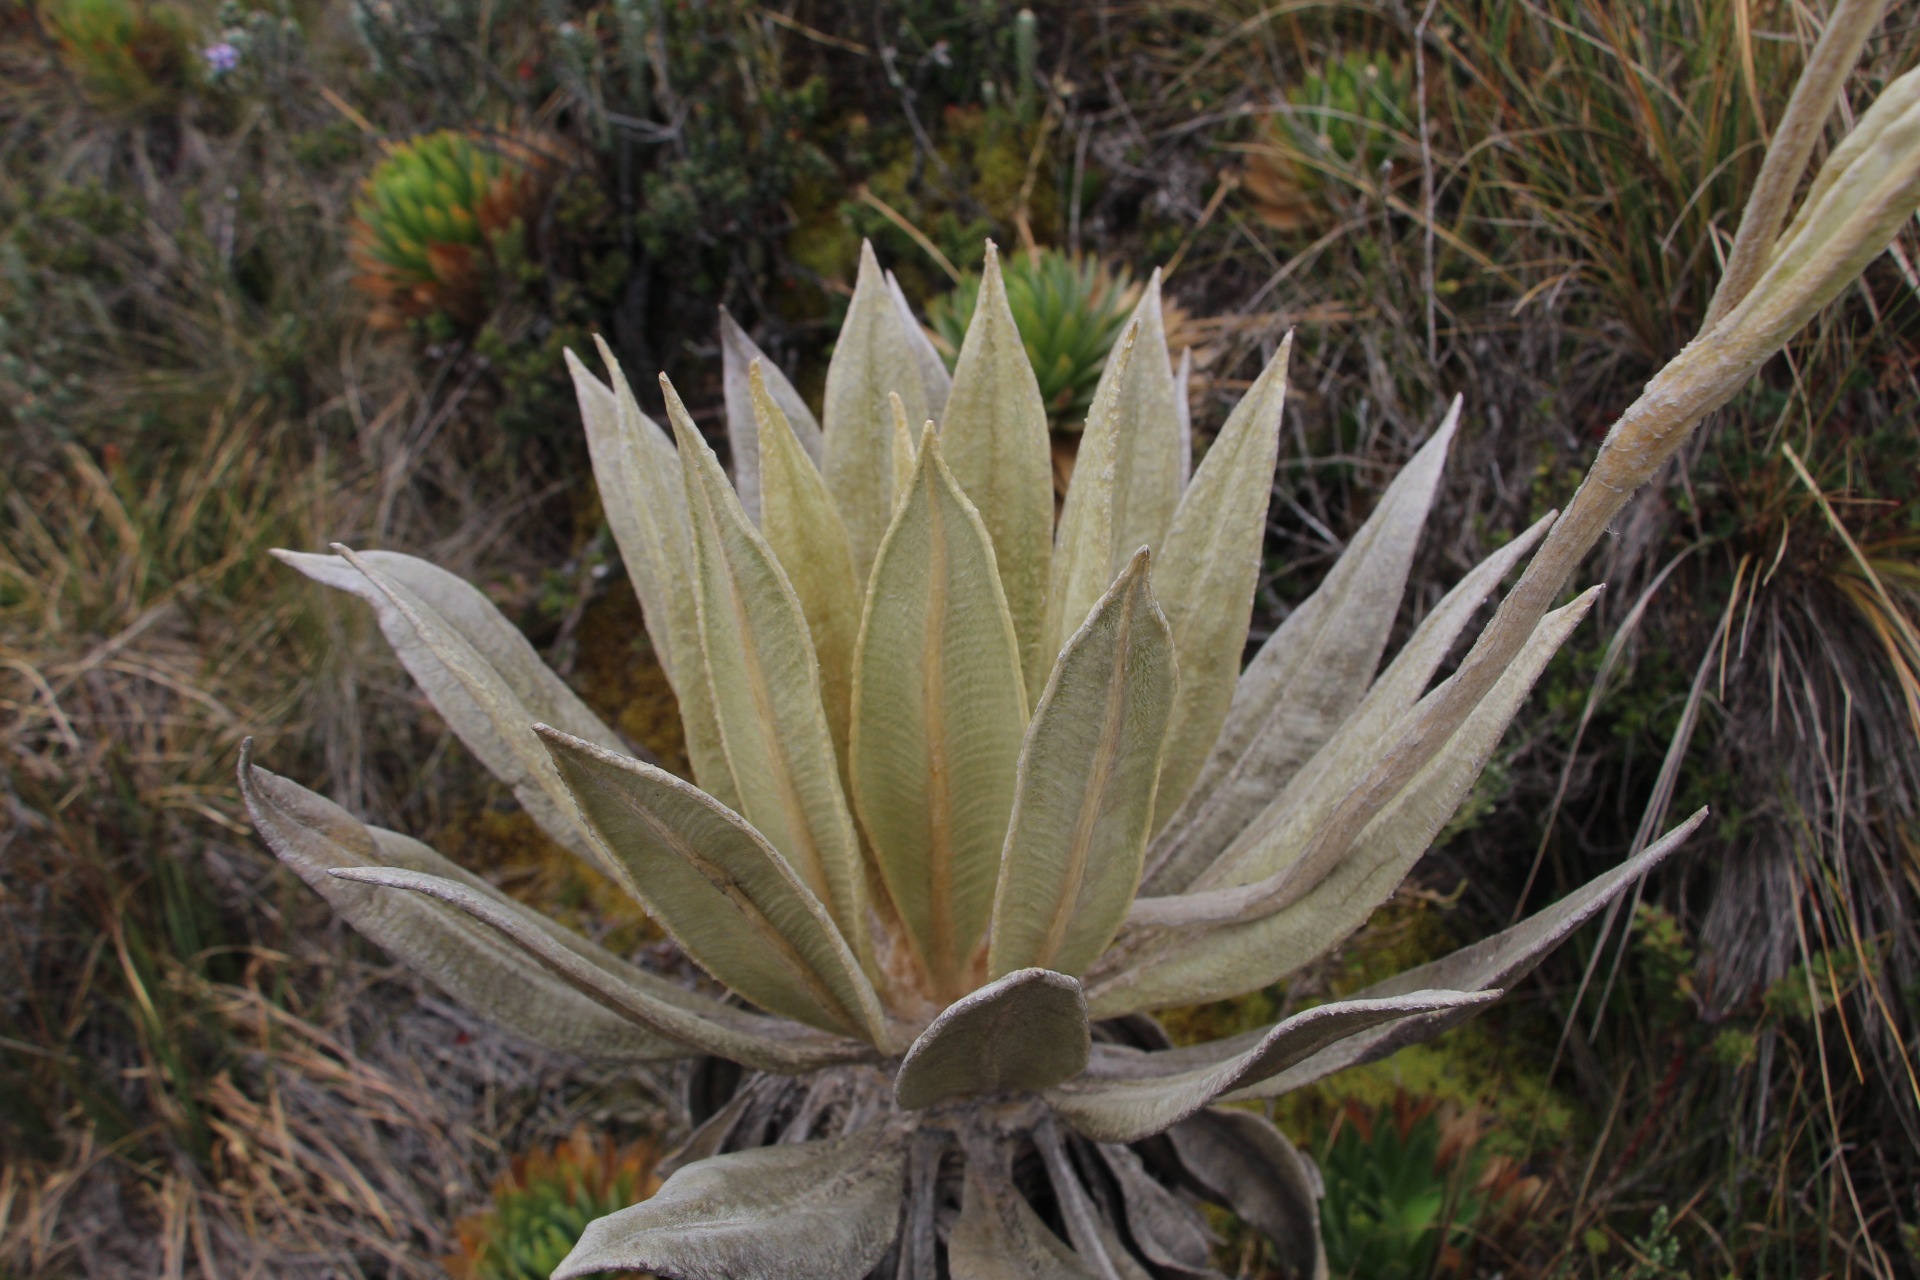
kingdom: Plantae
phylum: Tracheophyta
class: Magnoliopsida
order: Asterales
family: Asteraceae
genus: Espeletia
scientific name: Espeletia grandiflora
